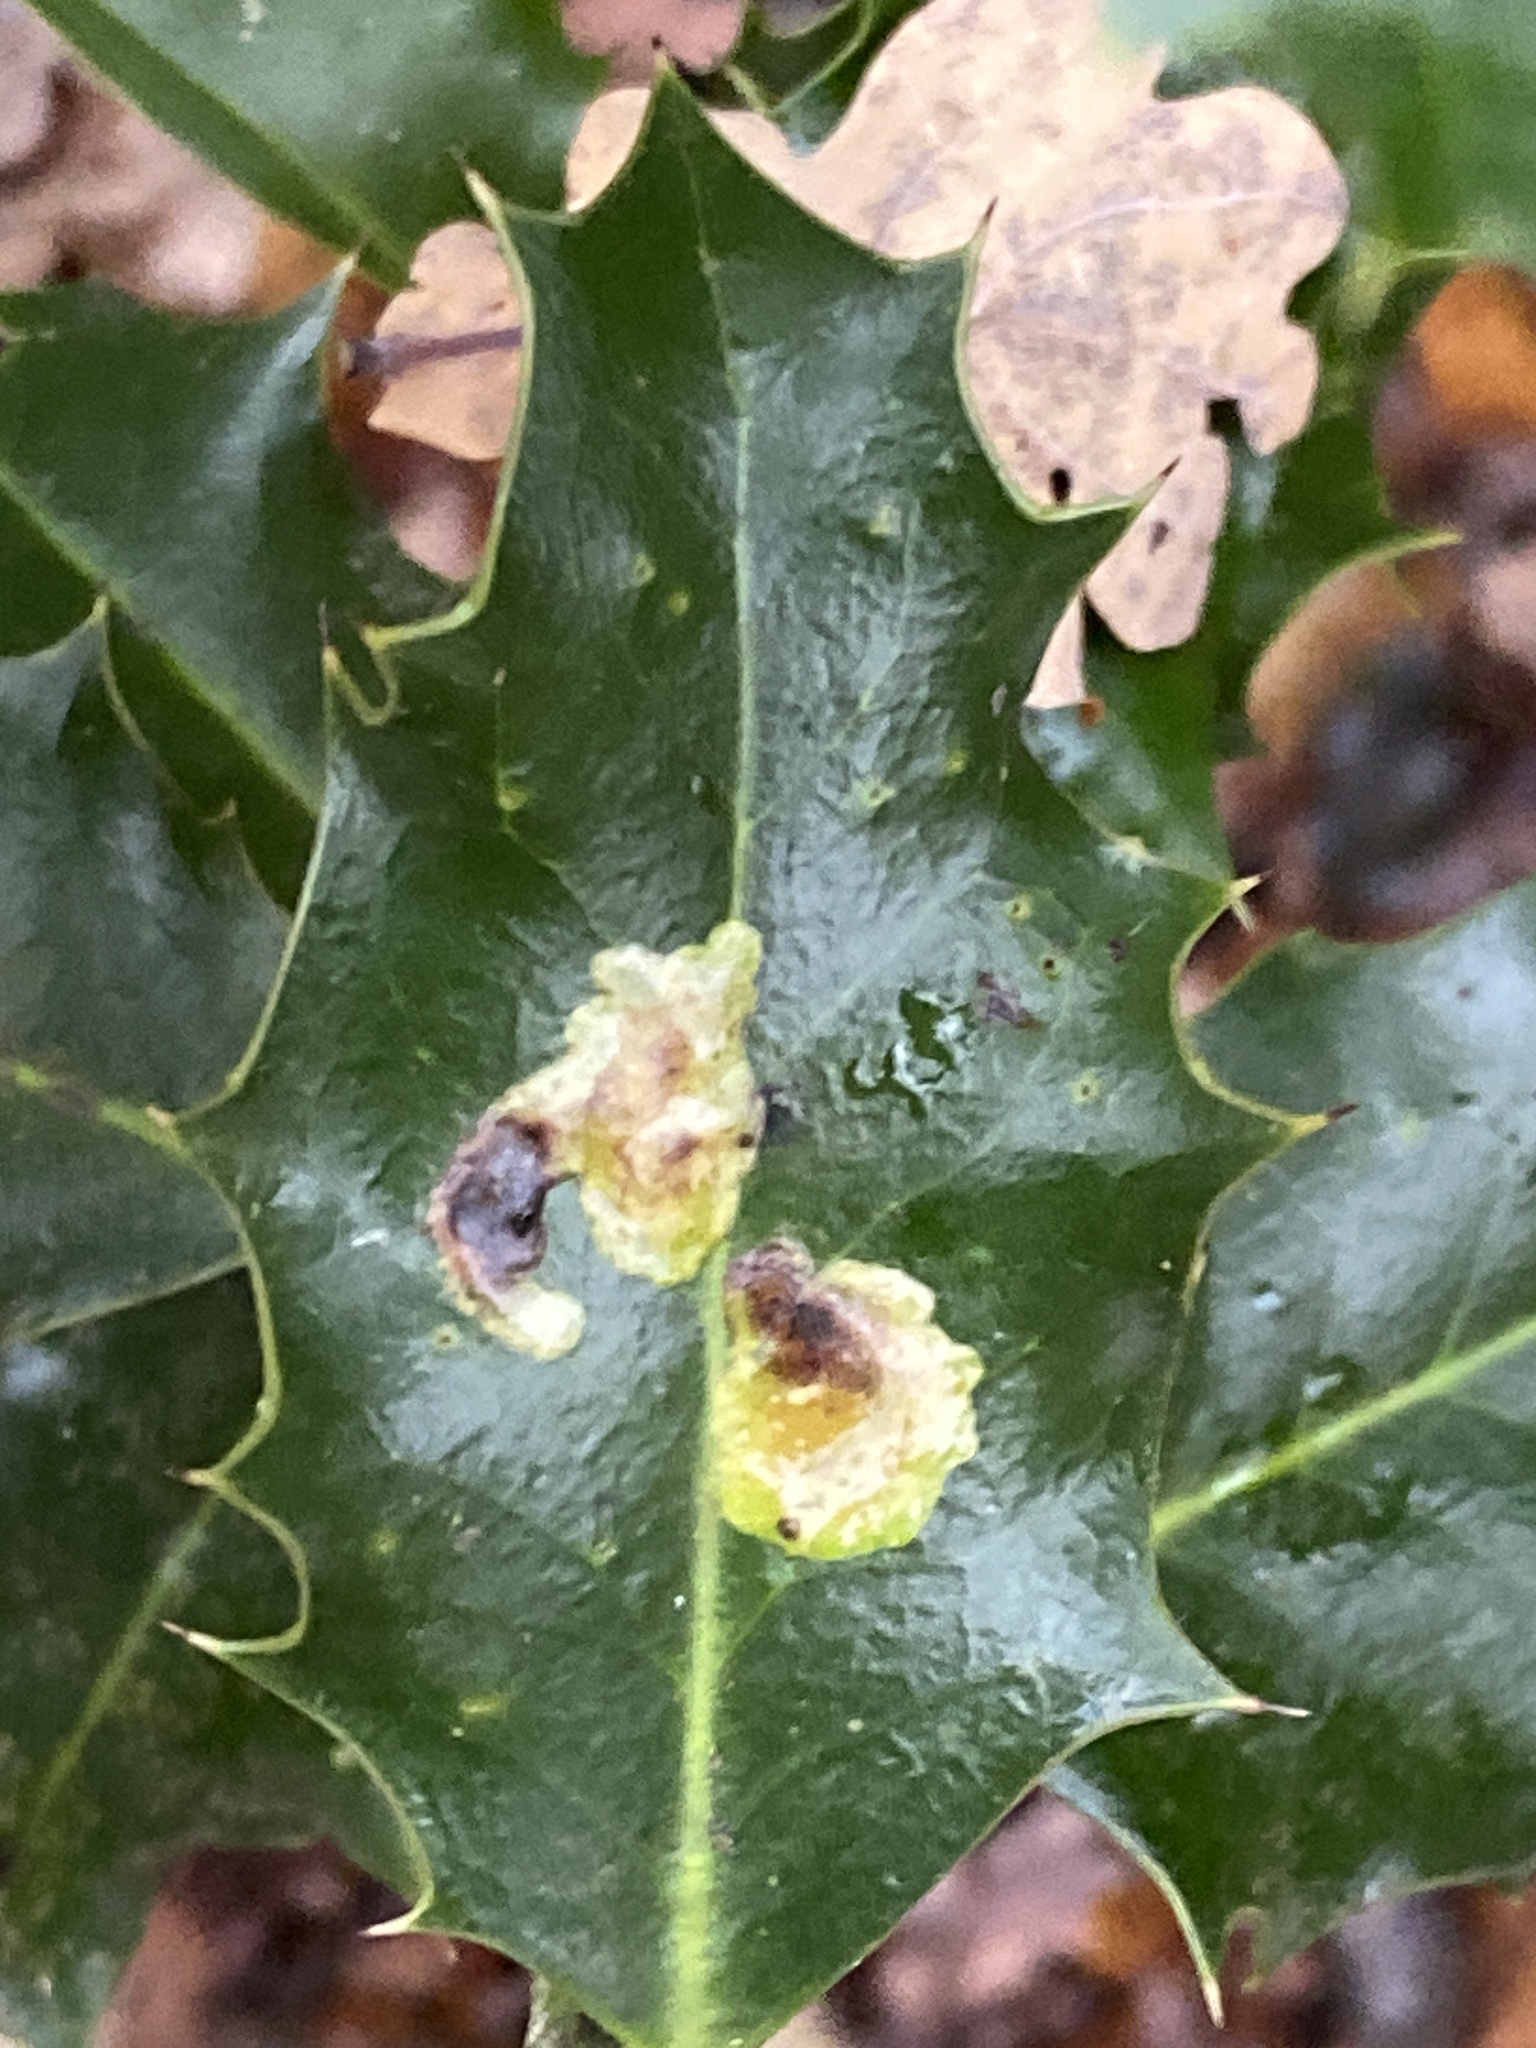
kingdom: Animalia
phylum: Arthropoda
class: Insecta
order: Diptera
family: Agromyzidae
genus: Phytomyza
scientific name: Phytomyza ilicis
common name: Holly leafminer
